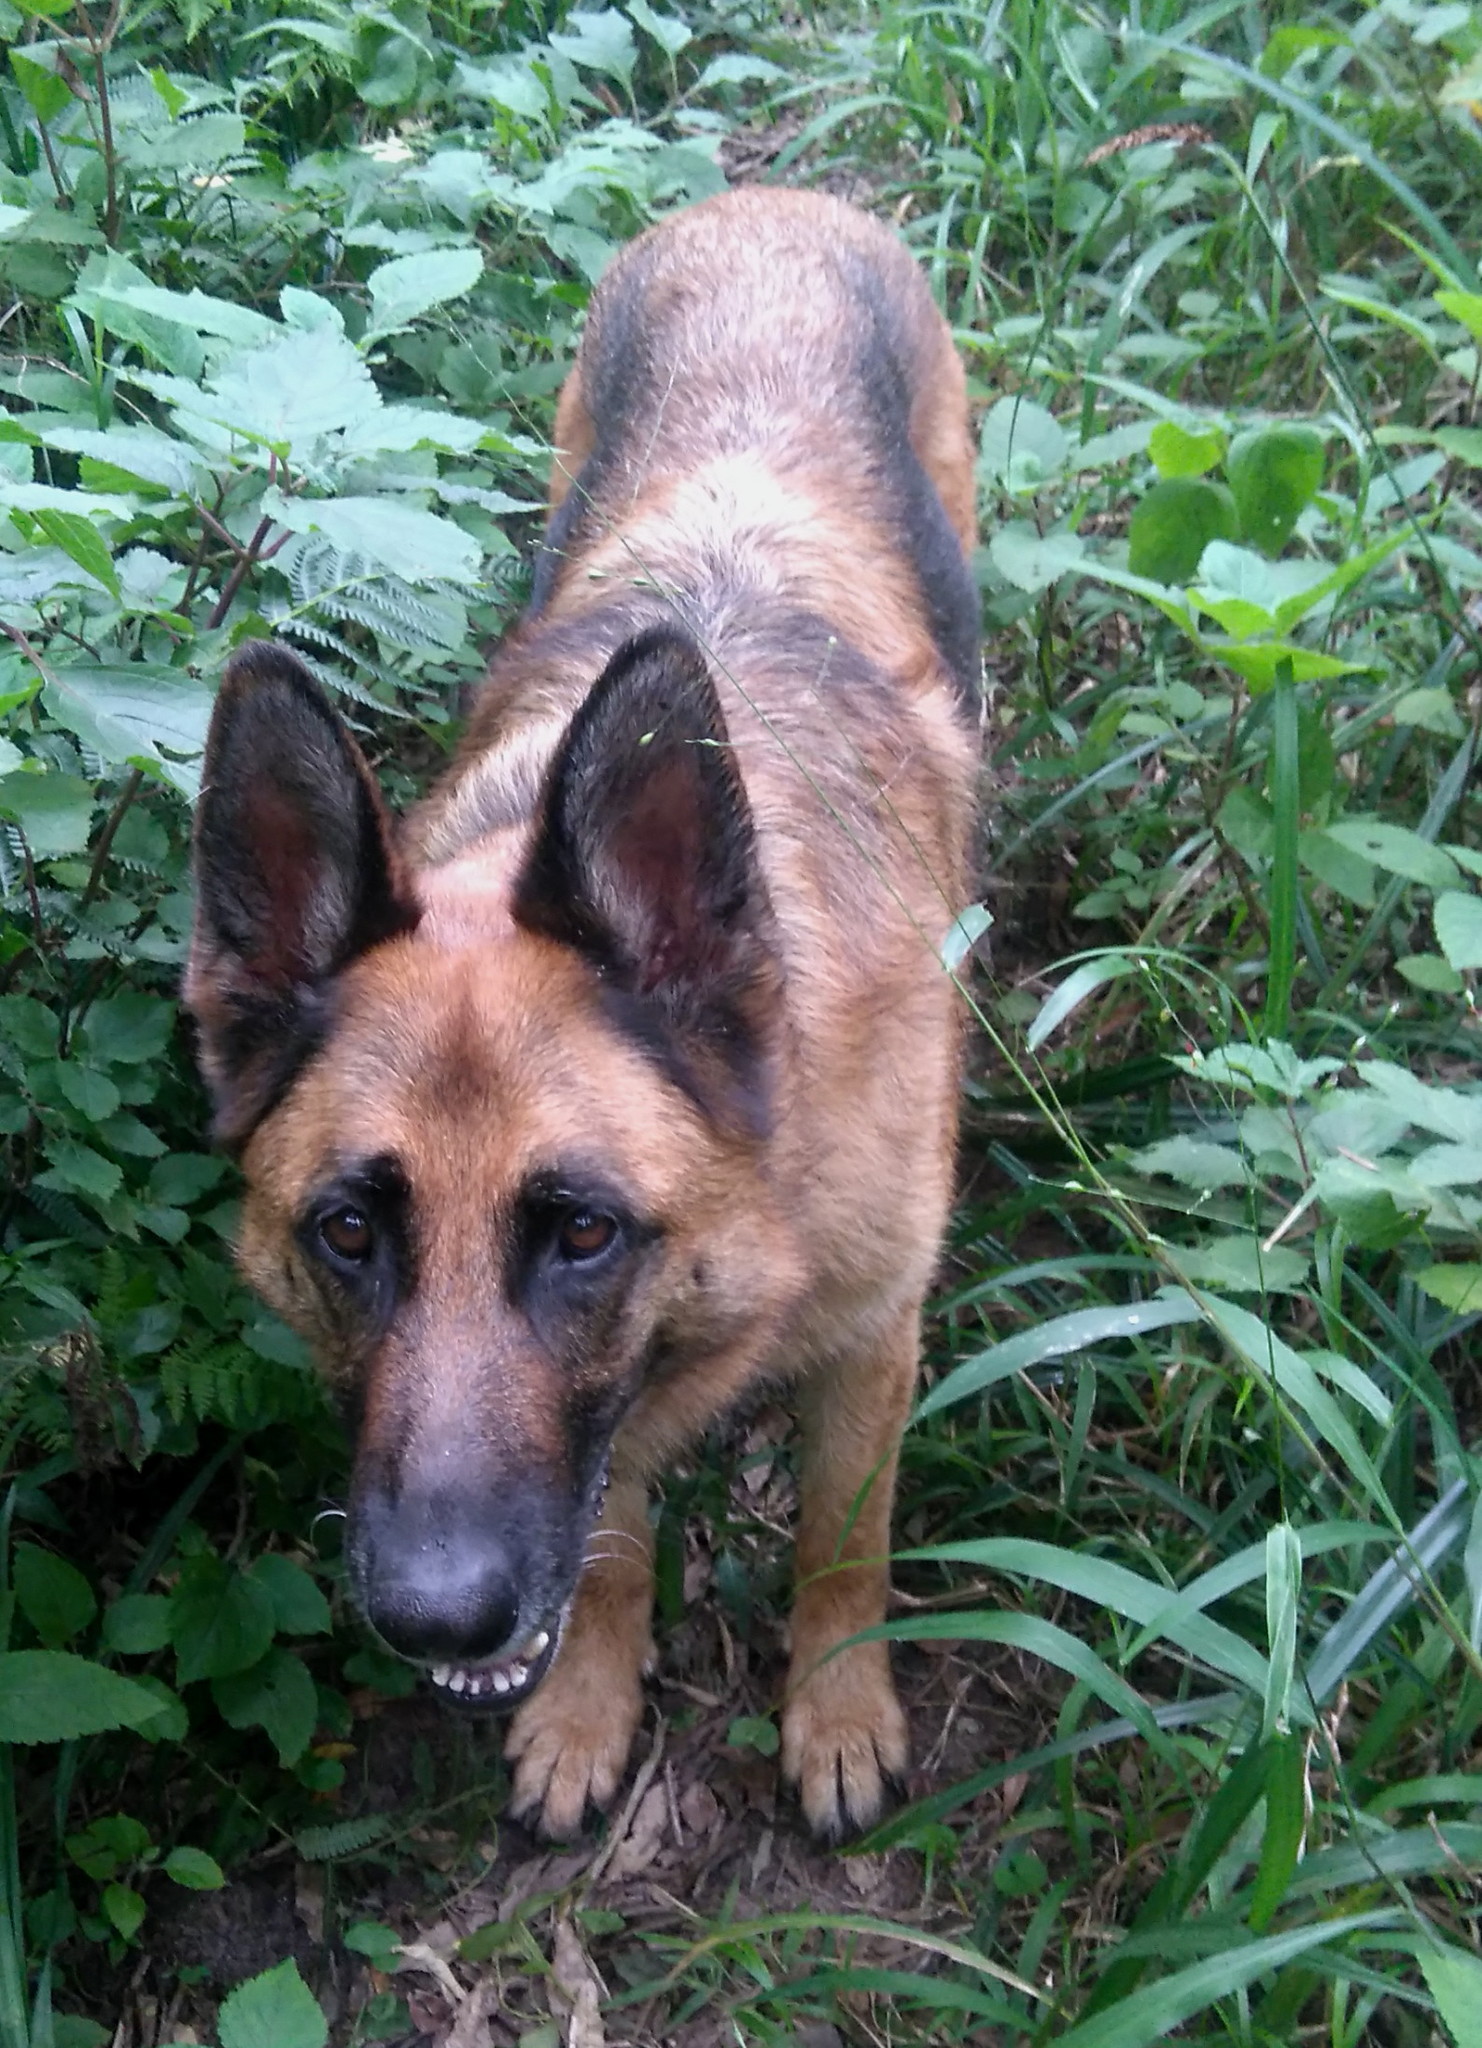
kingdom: Plantae
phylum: Tracheophyta
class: Magnoliopsida
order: Lamiales
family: Lamiaceae
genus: Plectranthus
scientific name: Plectranthus fruticosus
